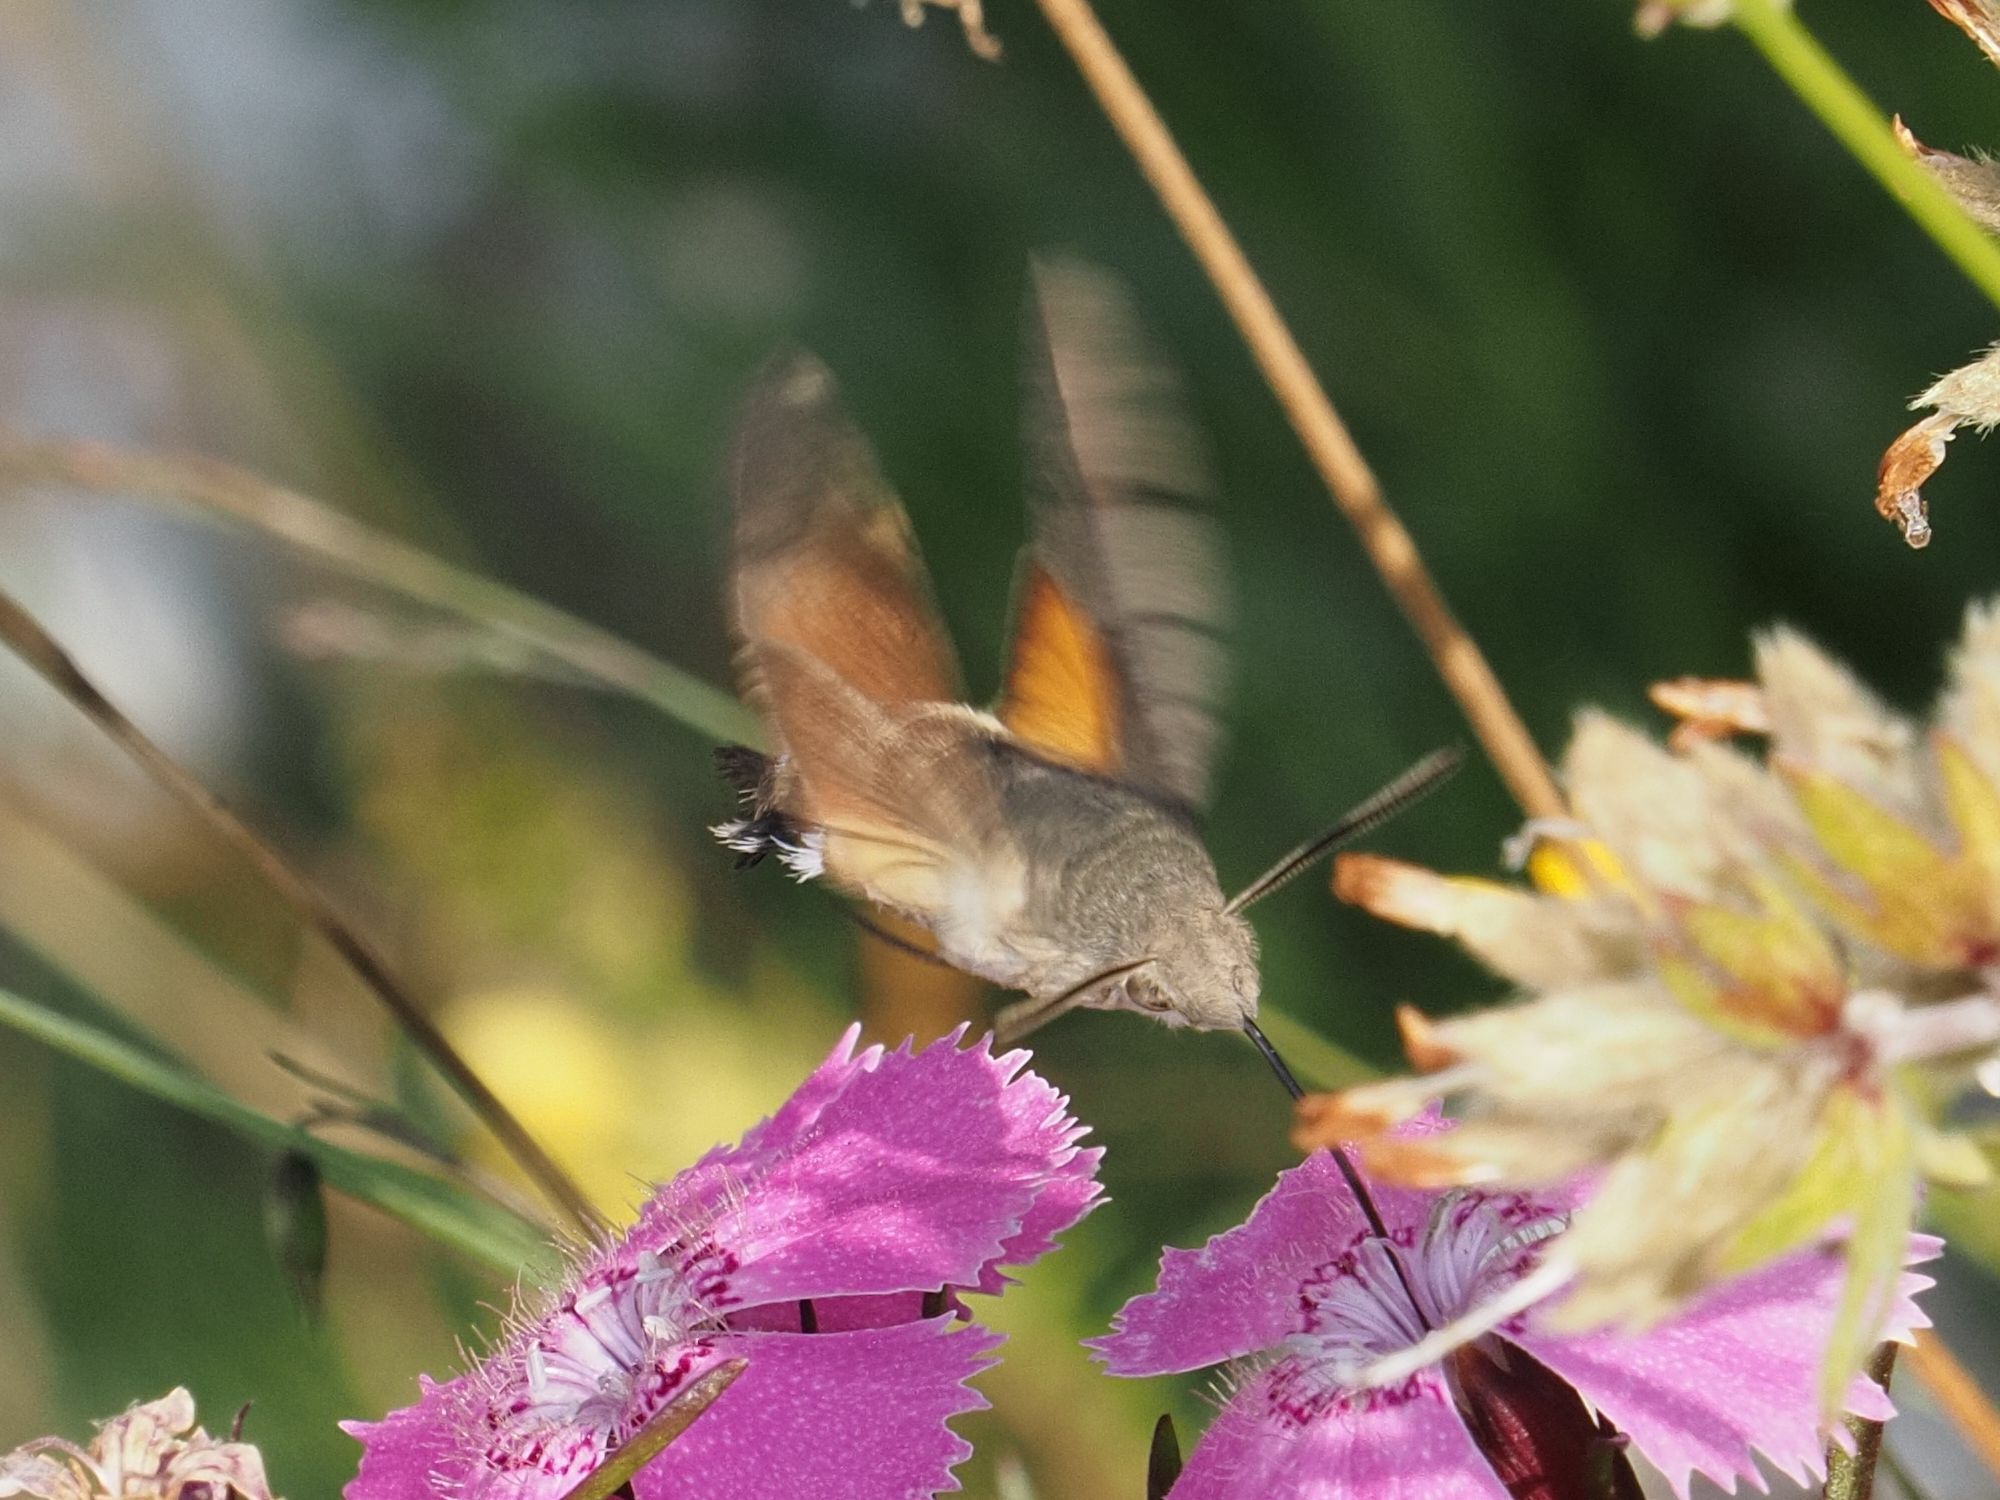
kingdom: Animalia
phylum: Arthropoda
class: Insecta
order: Lepidoptera
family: Sphingidae
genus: Macroglossum
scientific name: Macroglossum stellatarum
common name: Humming-bird hawk-moth
